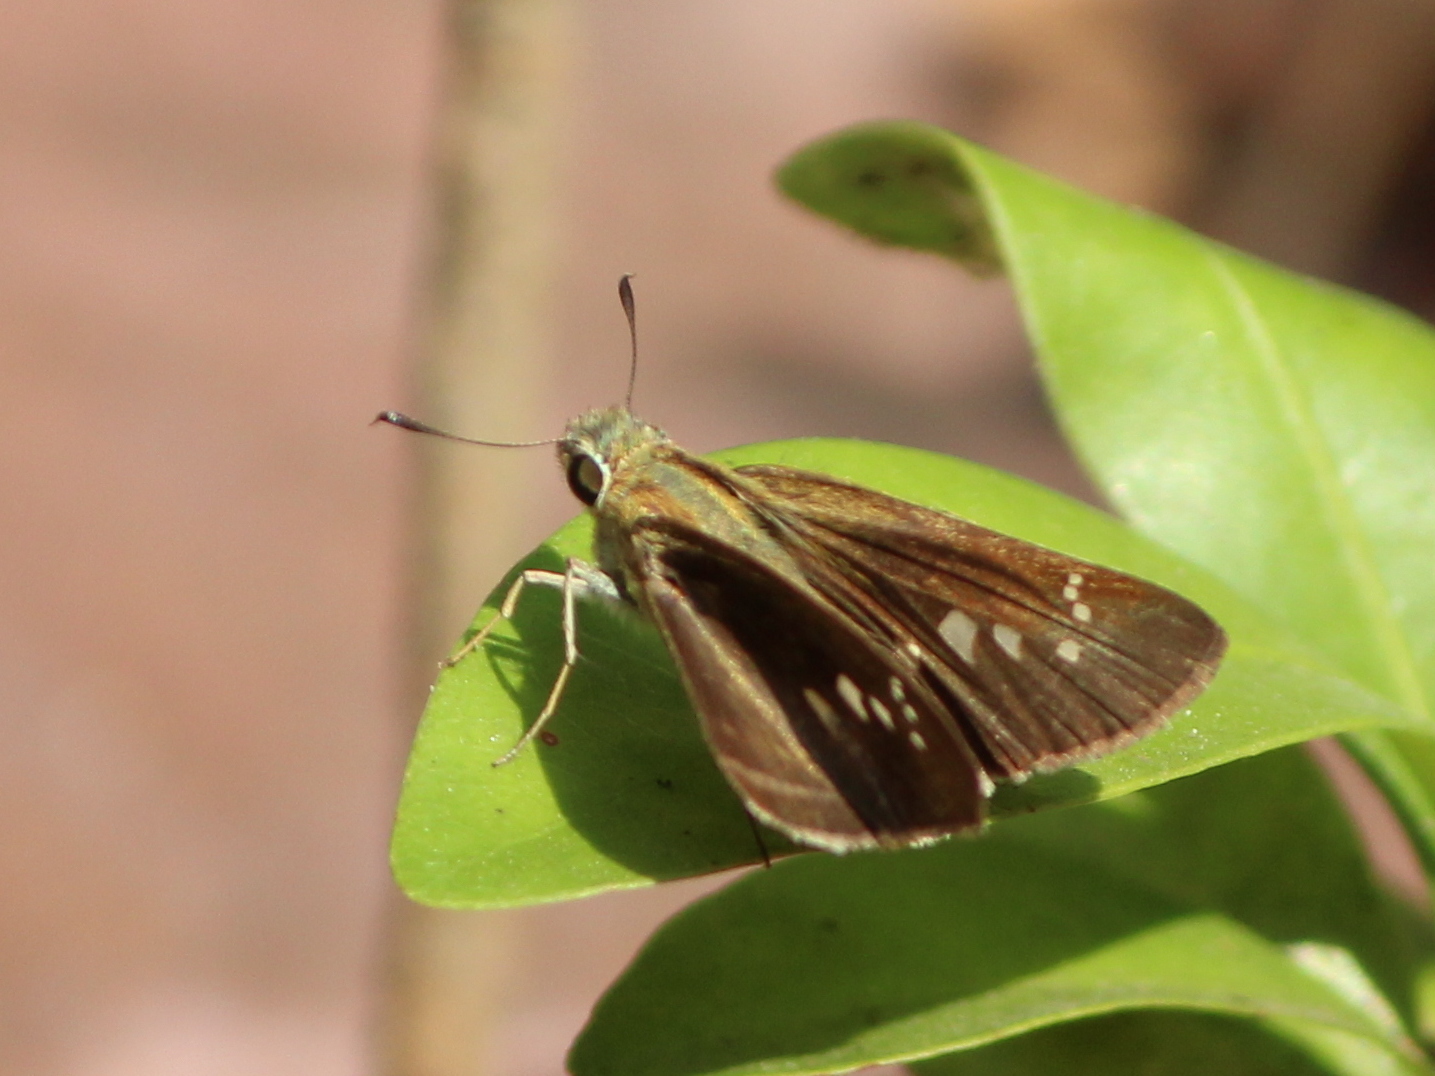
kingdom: Animalia
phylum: Arthropoda
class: Insecta
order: Lepidoptera
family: Hesperiidae
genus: Borbo
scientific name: Borbo cinnara
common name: Formosan swift
